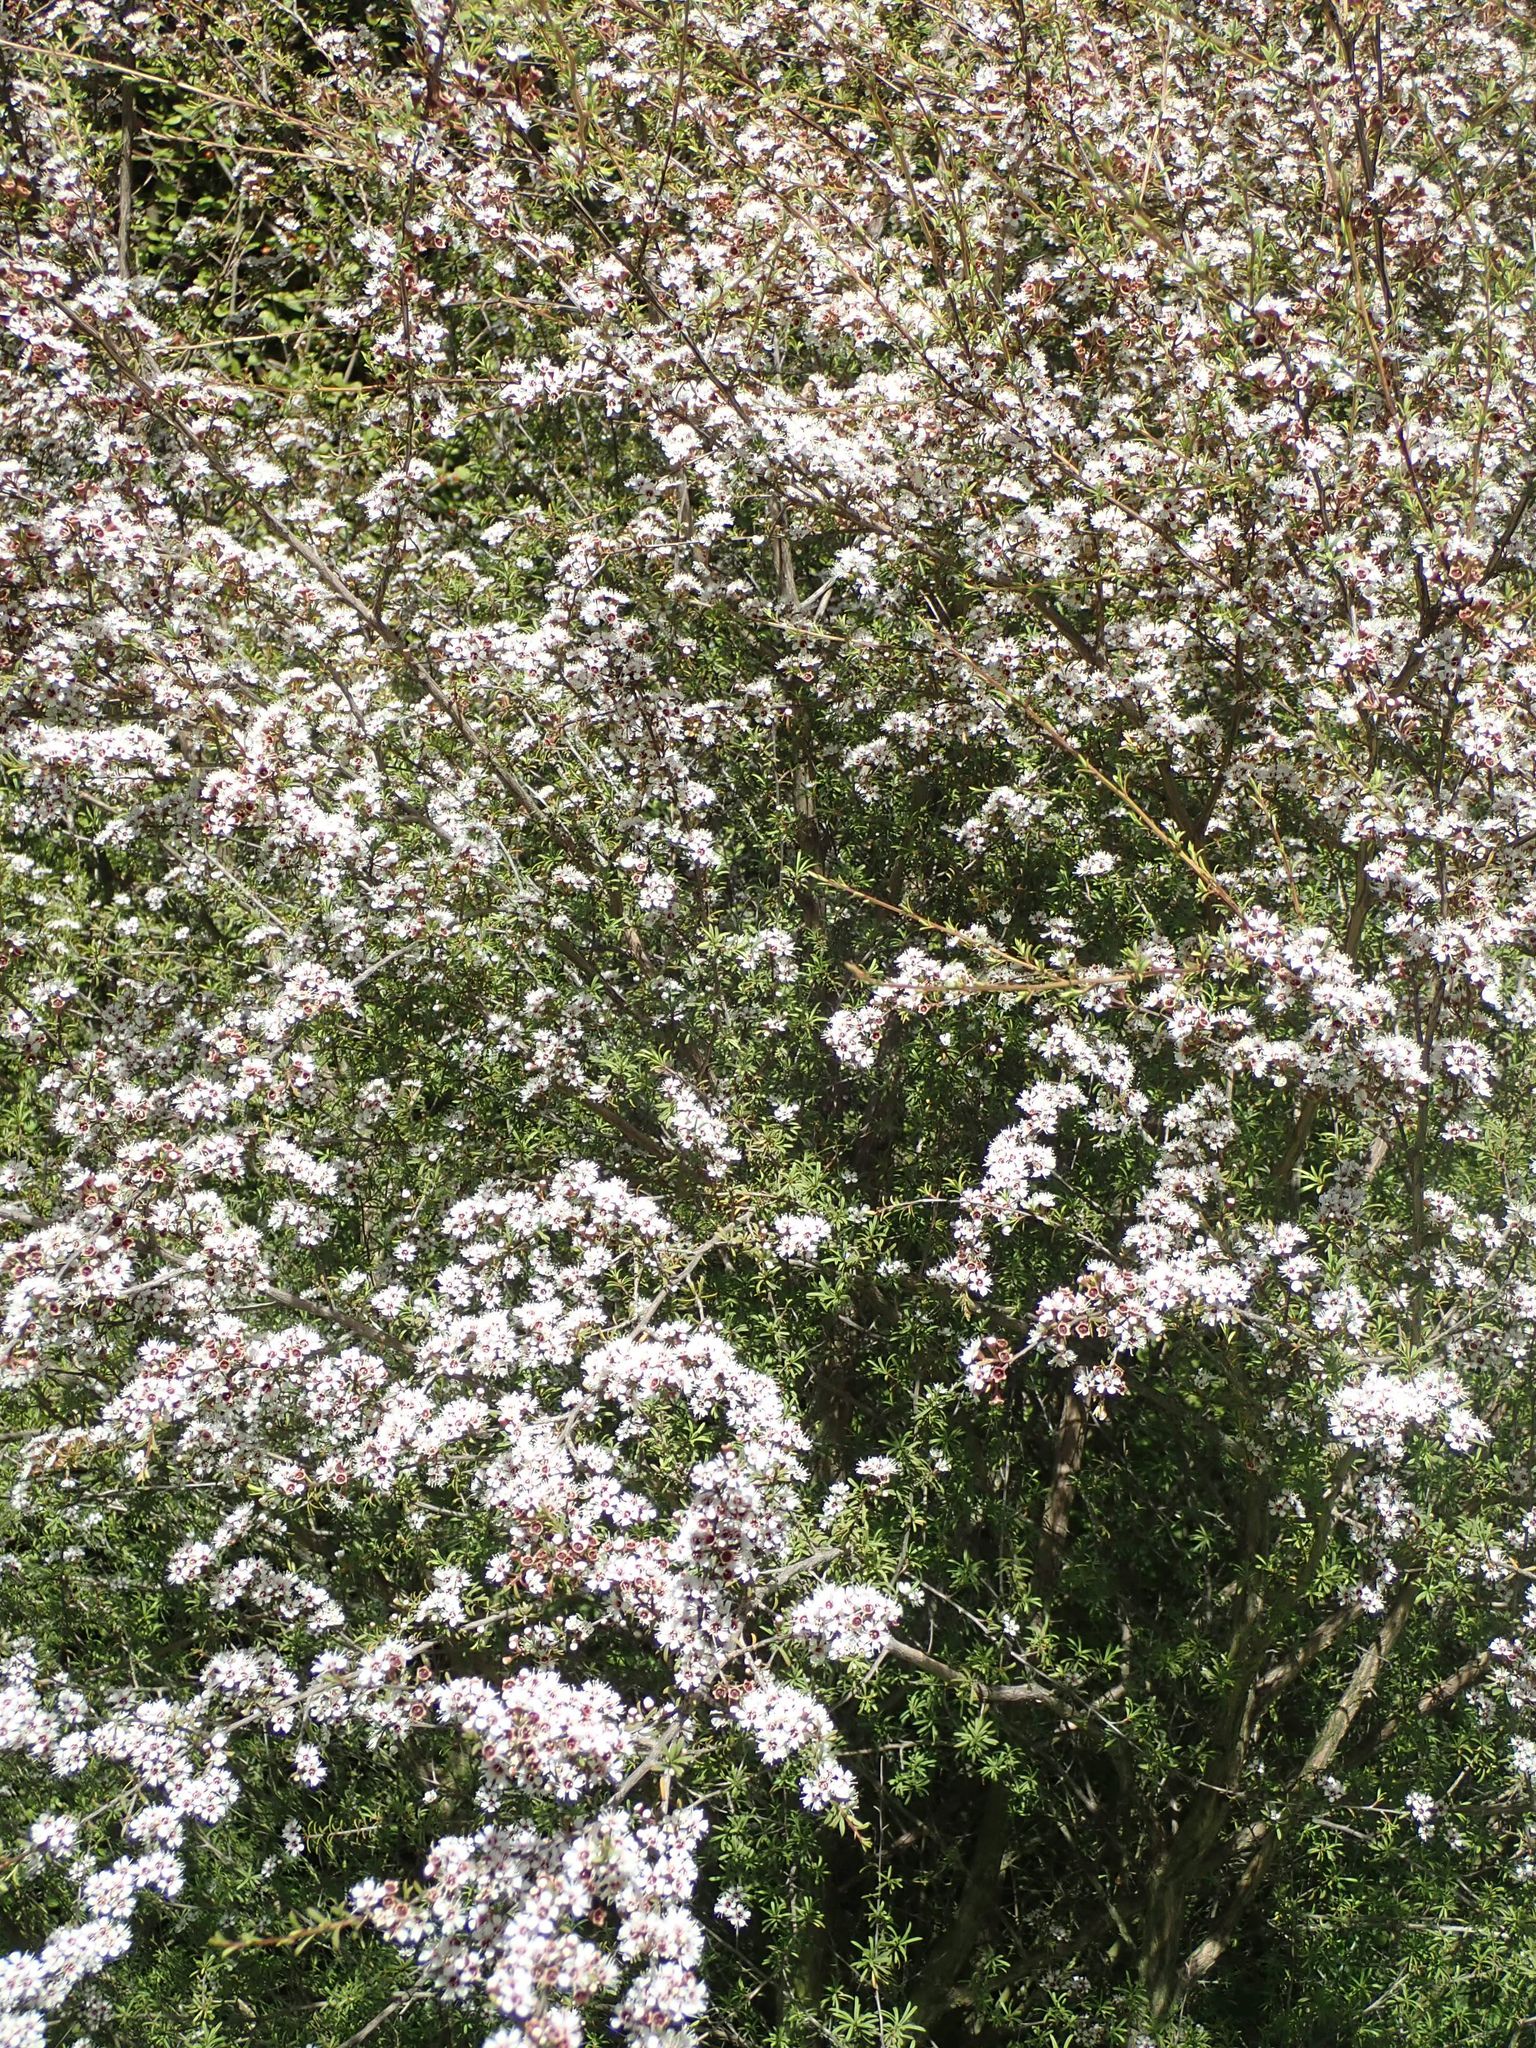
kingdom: Plantae
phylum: Tracheophyta
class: Magnoliopsida
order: Myrtales
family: Myrtaceae
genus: Kunzea
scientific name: Kunzea robusta
